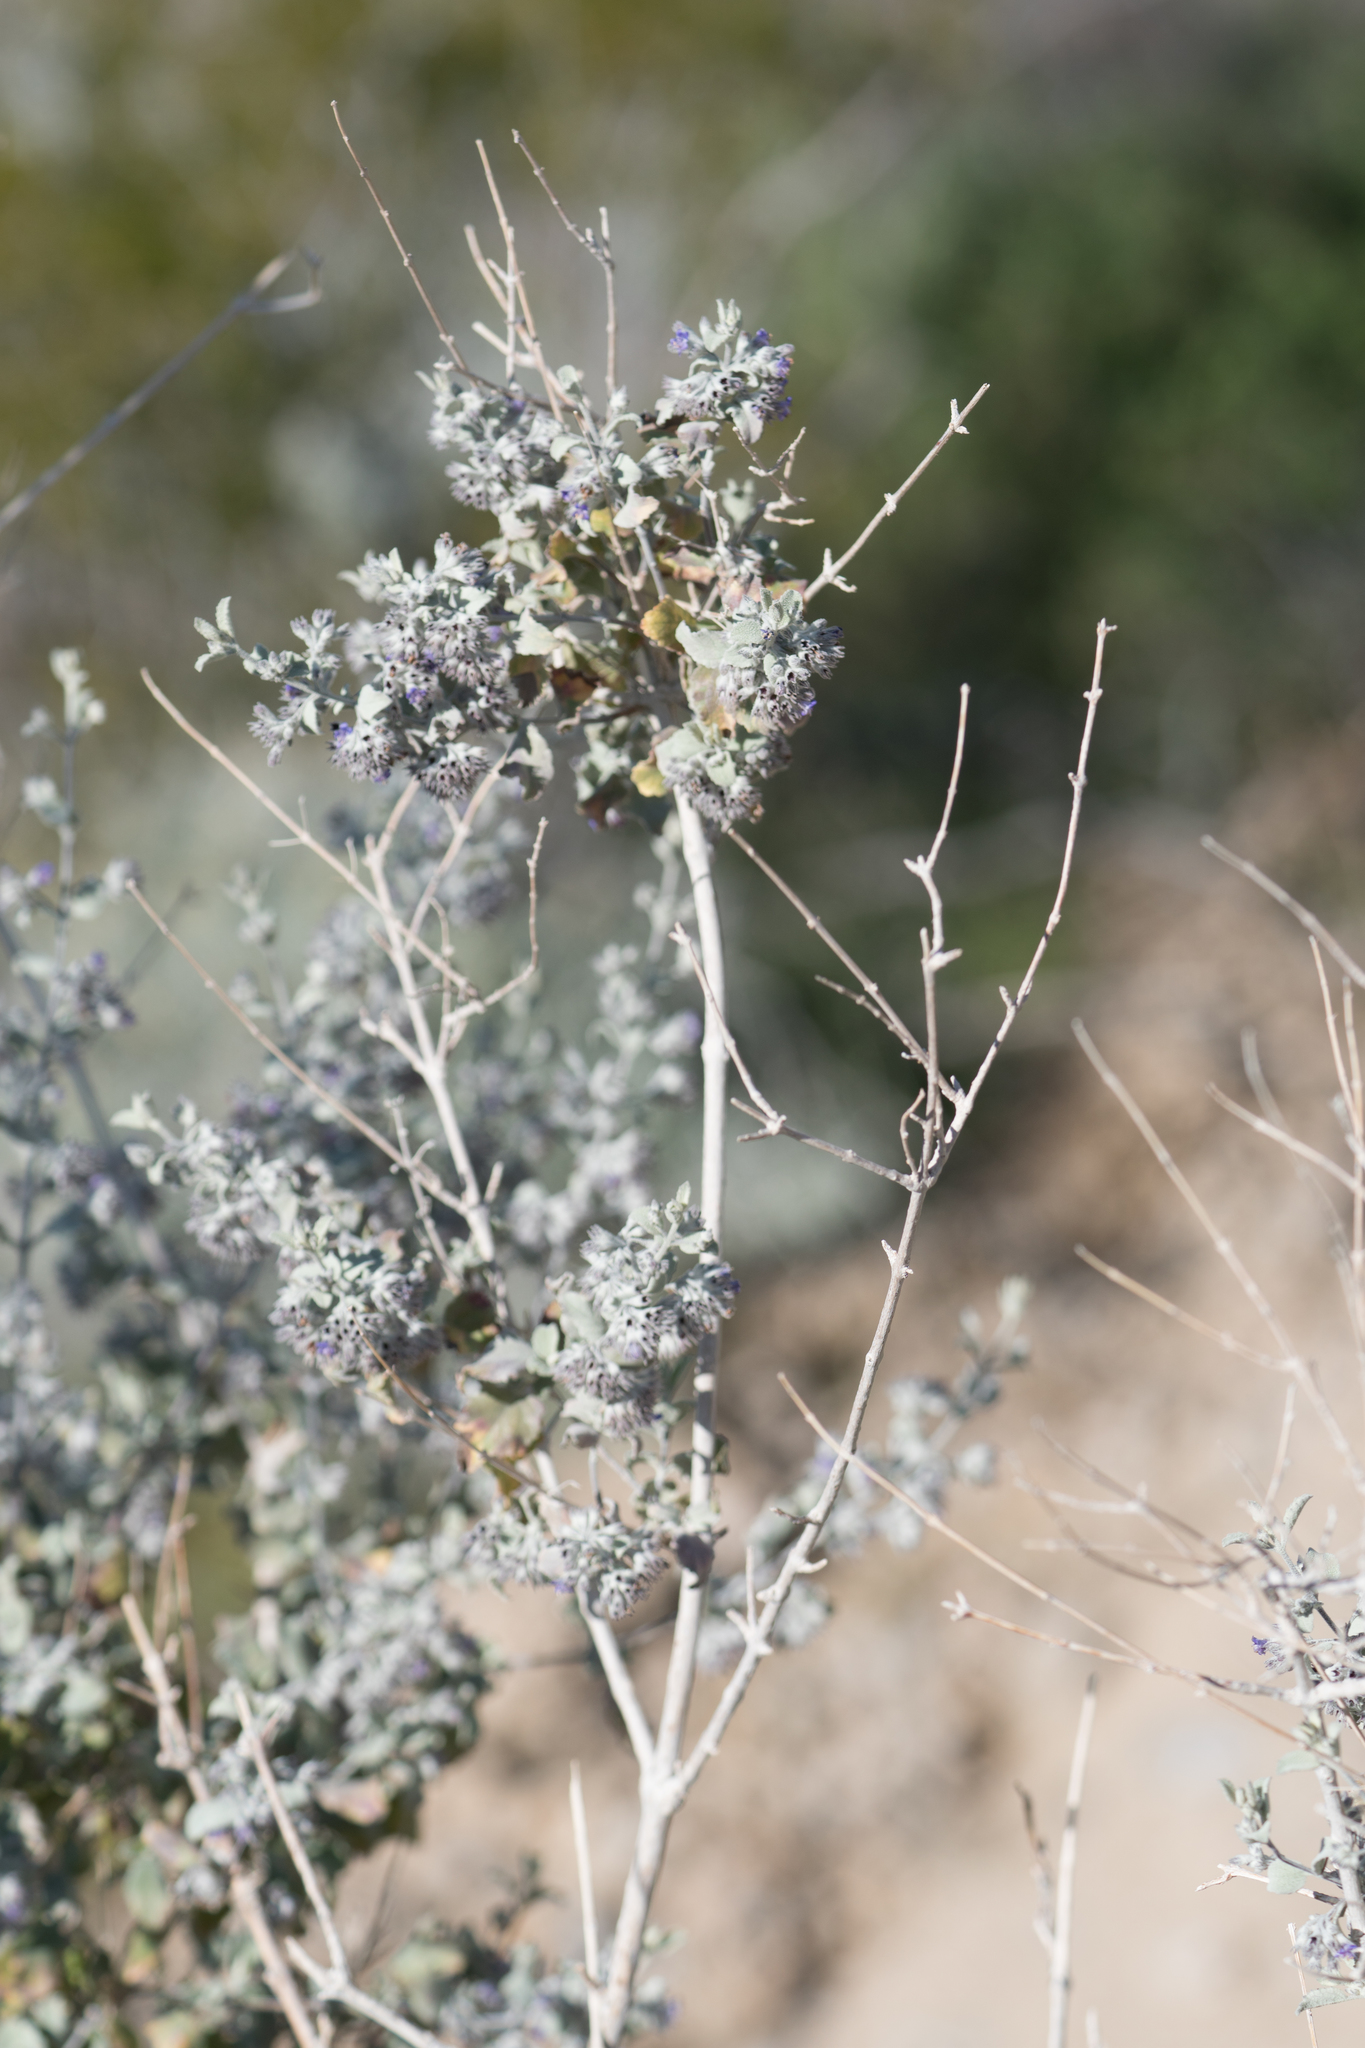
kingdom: Plantae
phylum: Tracheophyta
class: Magnoliopsida
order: Lamiales
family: Lamiaceae
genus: Condea
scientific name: Condea emoryi
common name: Chia
